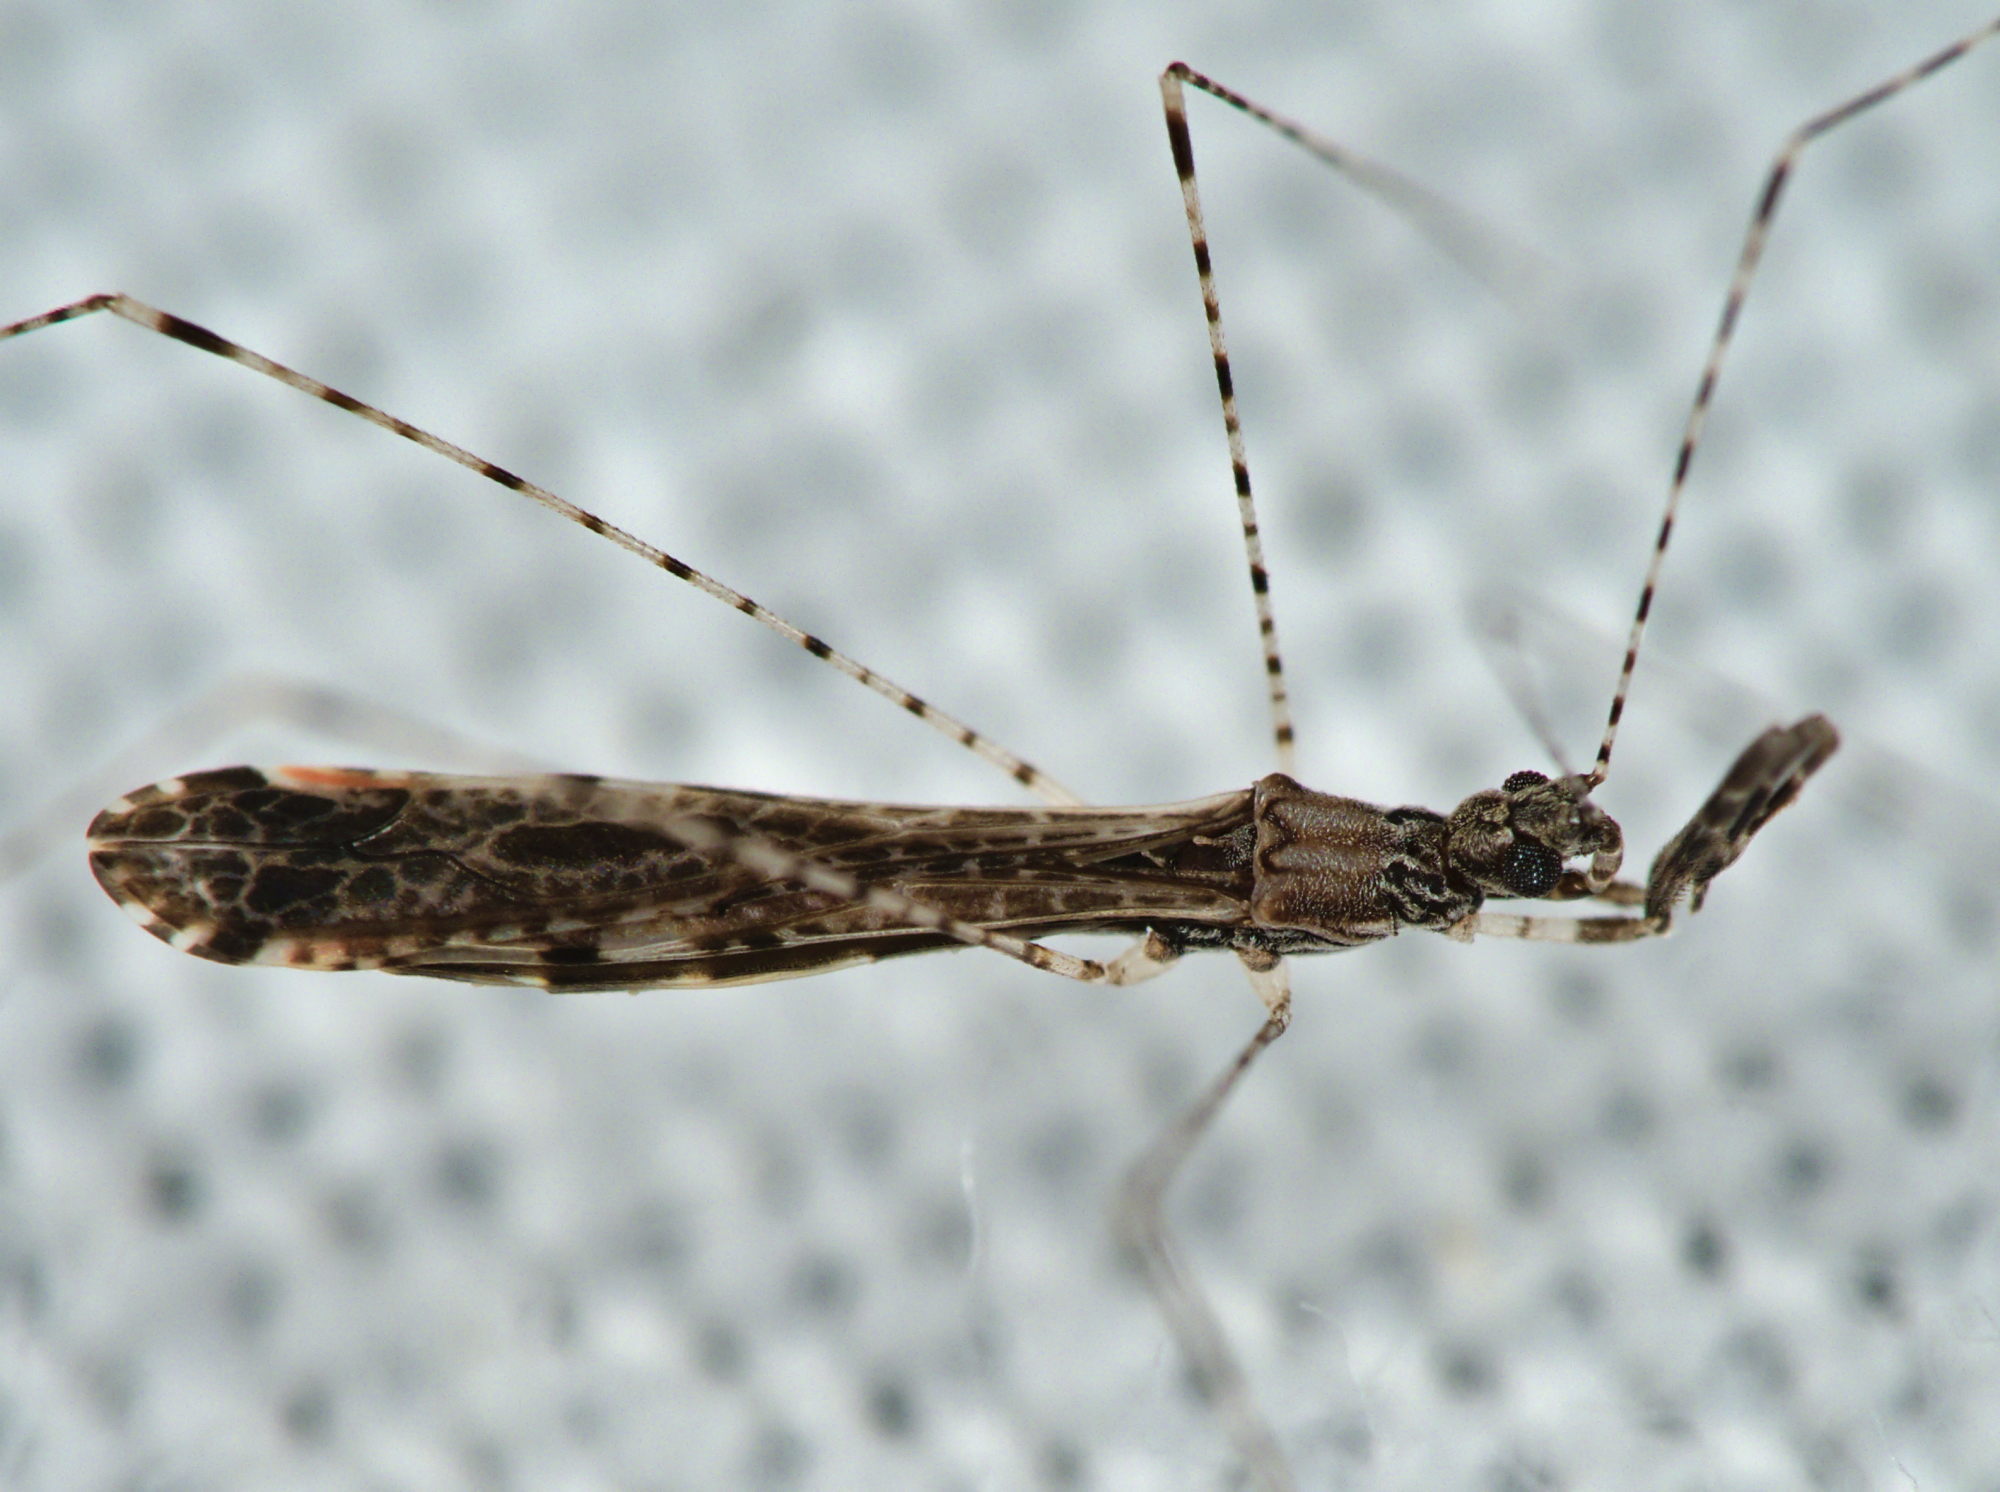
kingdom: Animalia
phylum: Arthropoda
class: Insecta
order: Hemiptera
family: Reduviidae
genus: Empicoris
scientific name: Empicoris rubromaculatus
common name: Thread-legged bug
